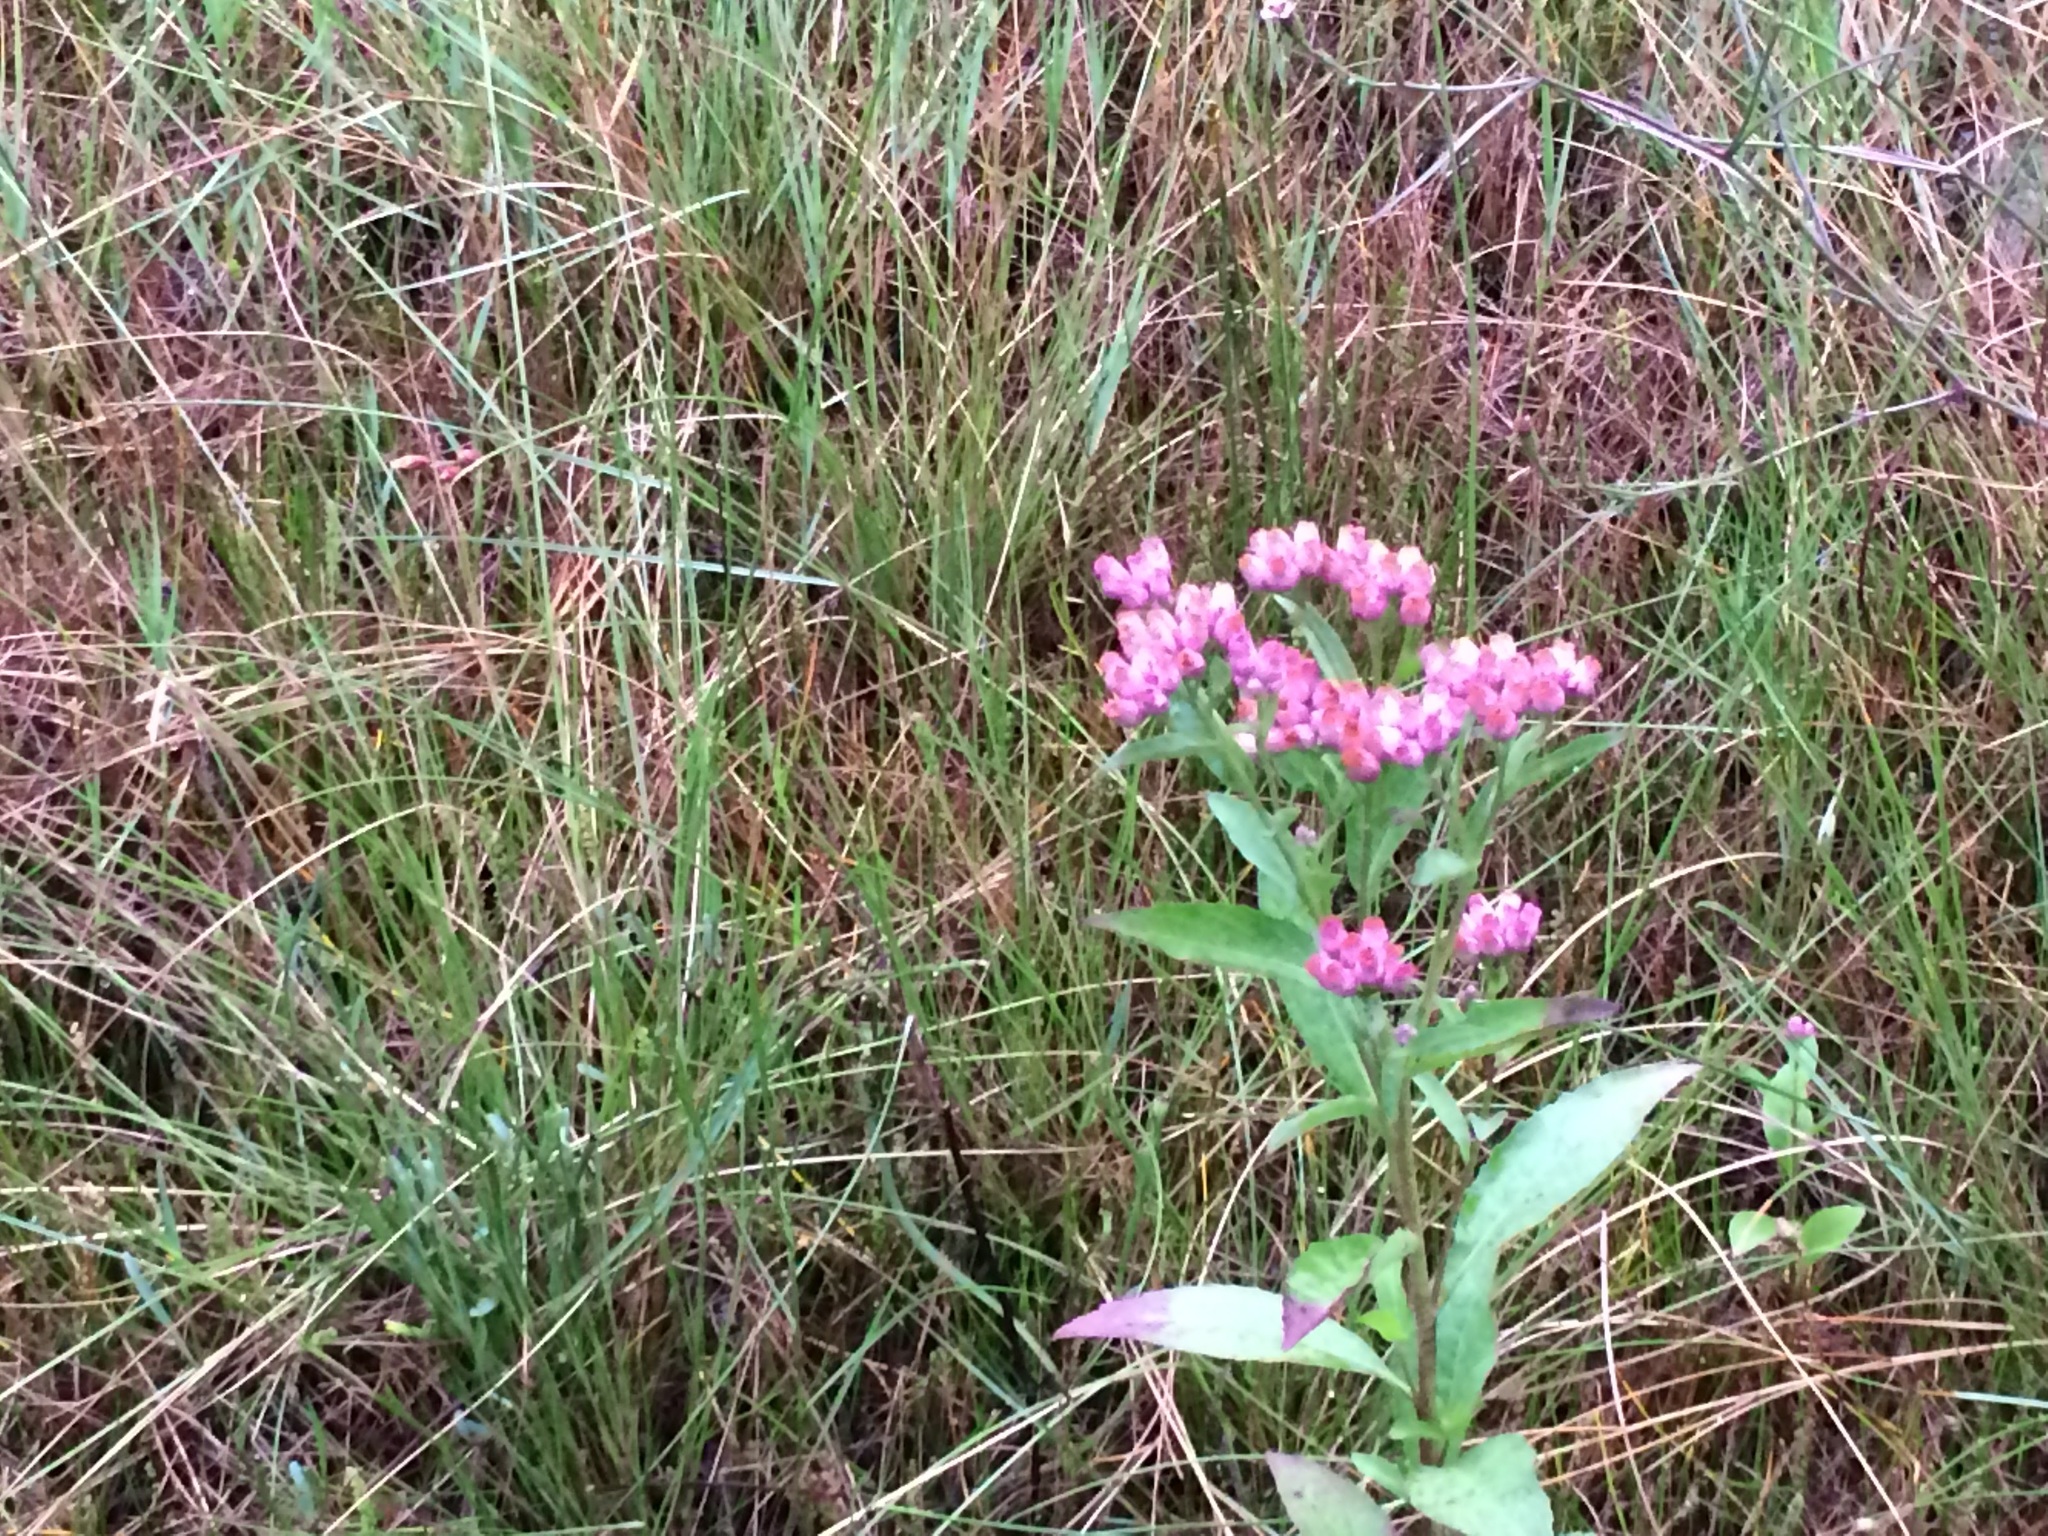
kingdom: Plantae
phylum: Tracheophyta
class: Magnoliopsida
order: Asterales
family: Asteraceae
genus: Pluchea
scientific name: Pluchea odorata
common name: Saltmarsh fleabane
